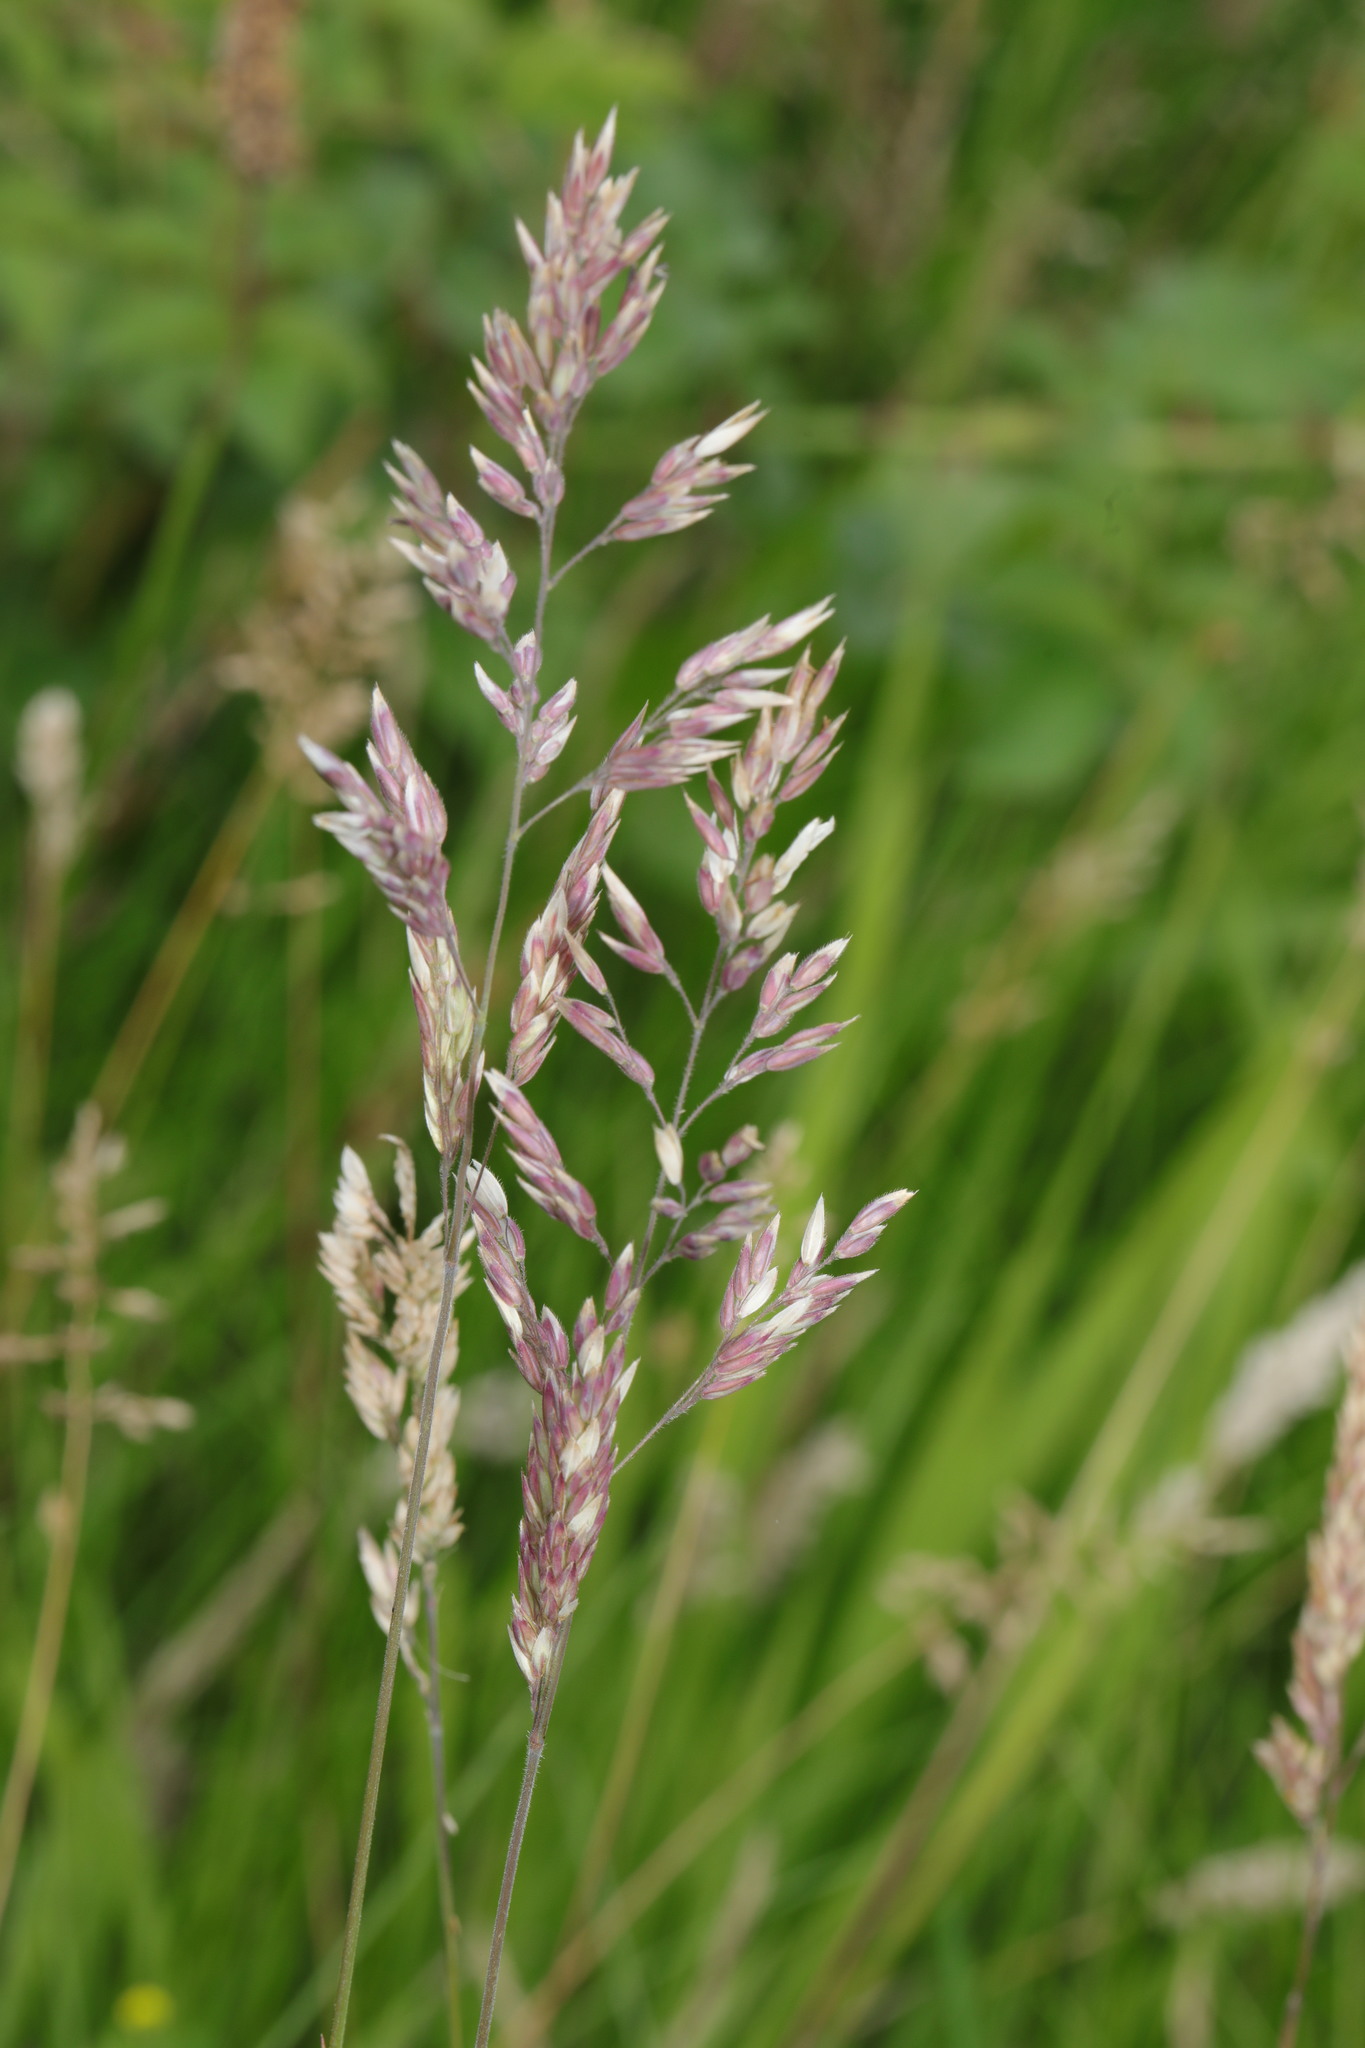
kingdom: Plantae
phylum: Tracheophyta
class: Liliopsida
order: Poales
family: Poaceae
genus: Holcus
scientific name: Holcus lanatus
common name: Yorkshire-fog
